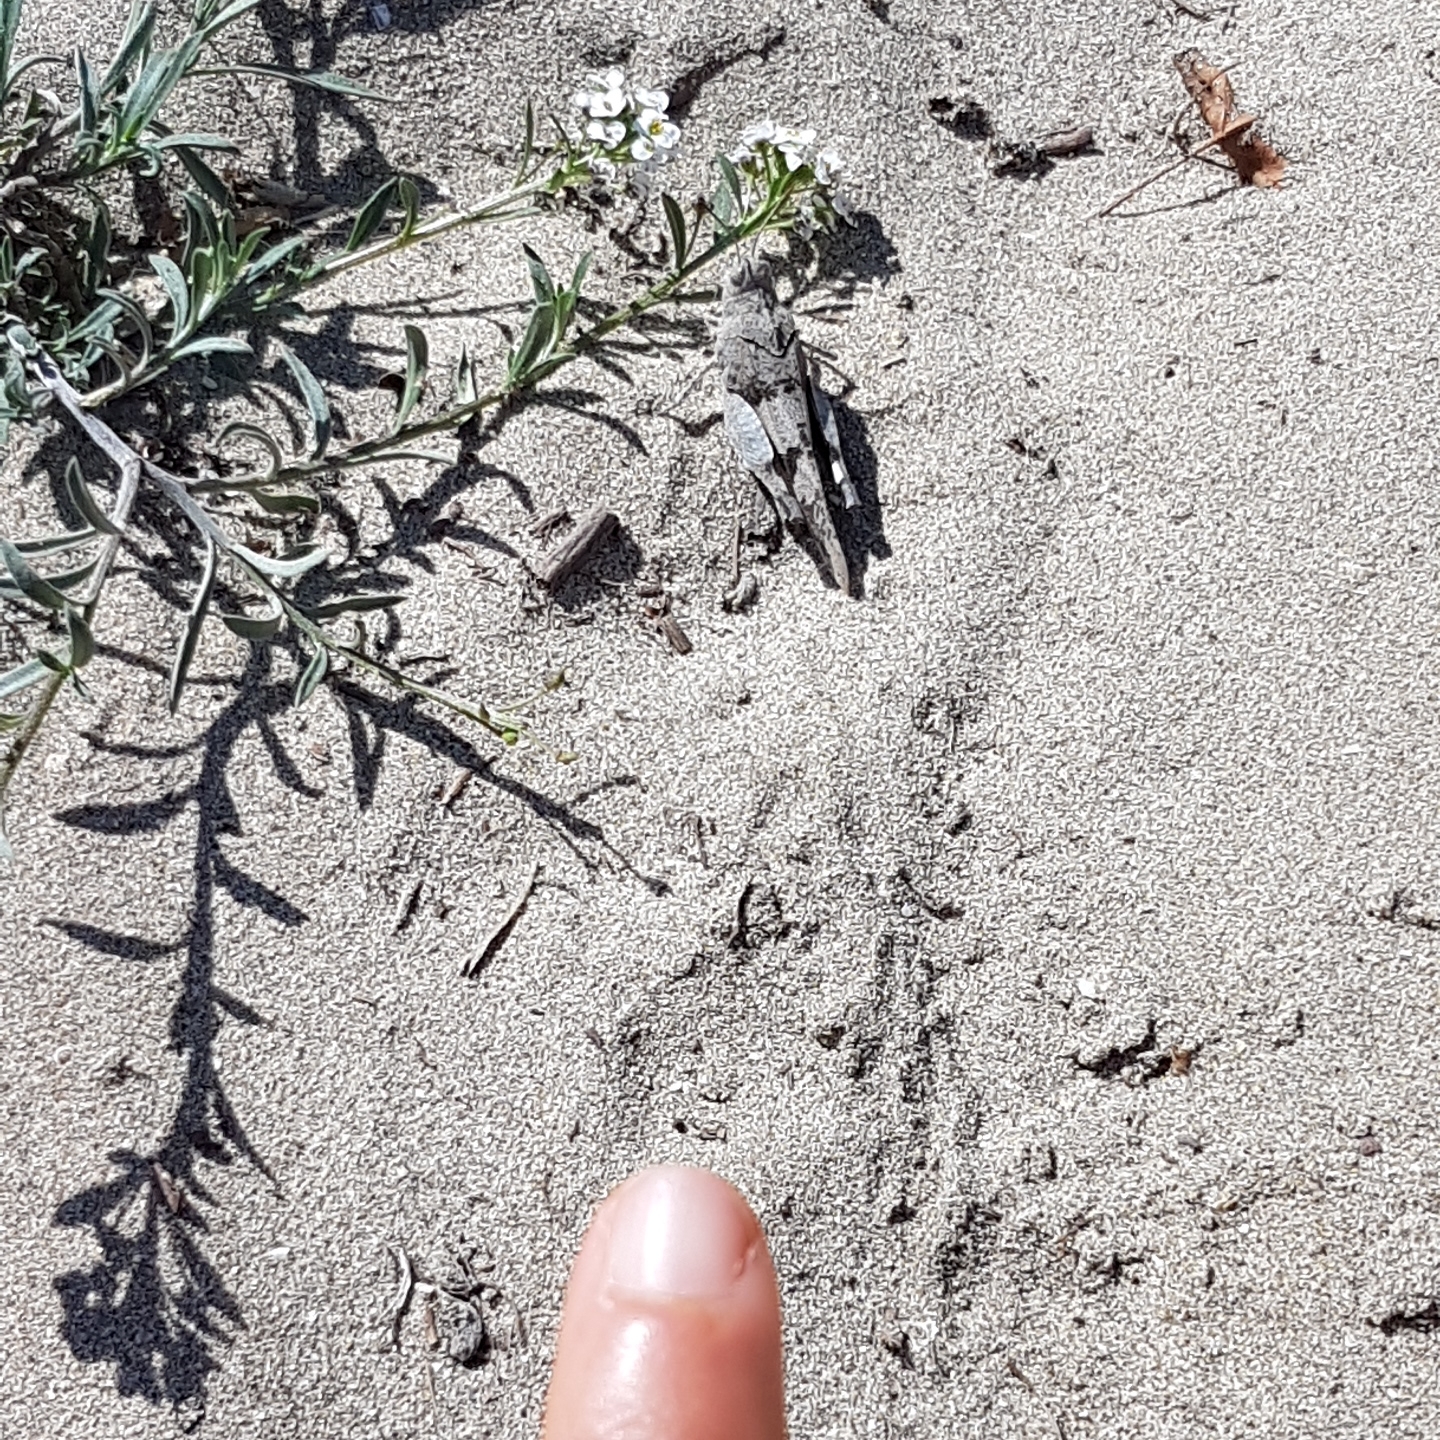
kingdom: Animalia
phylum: Arthropoda
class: Insecta
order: Orthoptera
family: Acrididae
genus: Oedipoda
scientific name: Oedipoda caerulescens
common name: Blue-winged grasshopper
